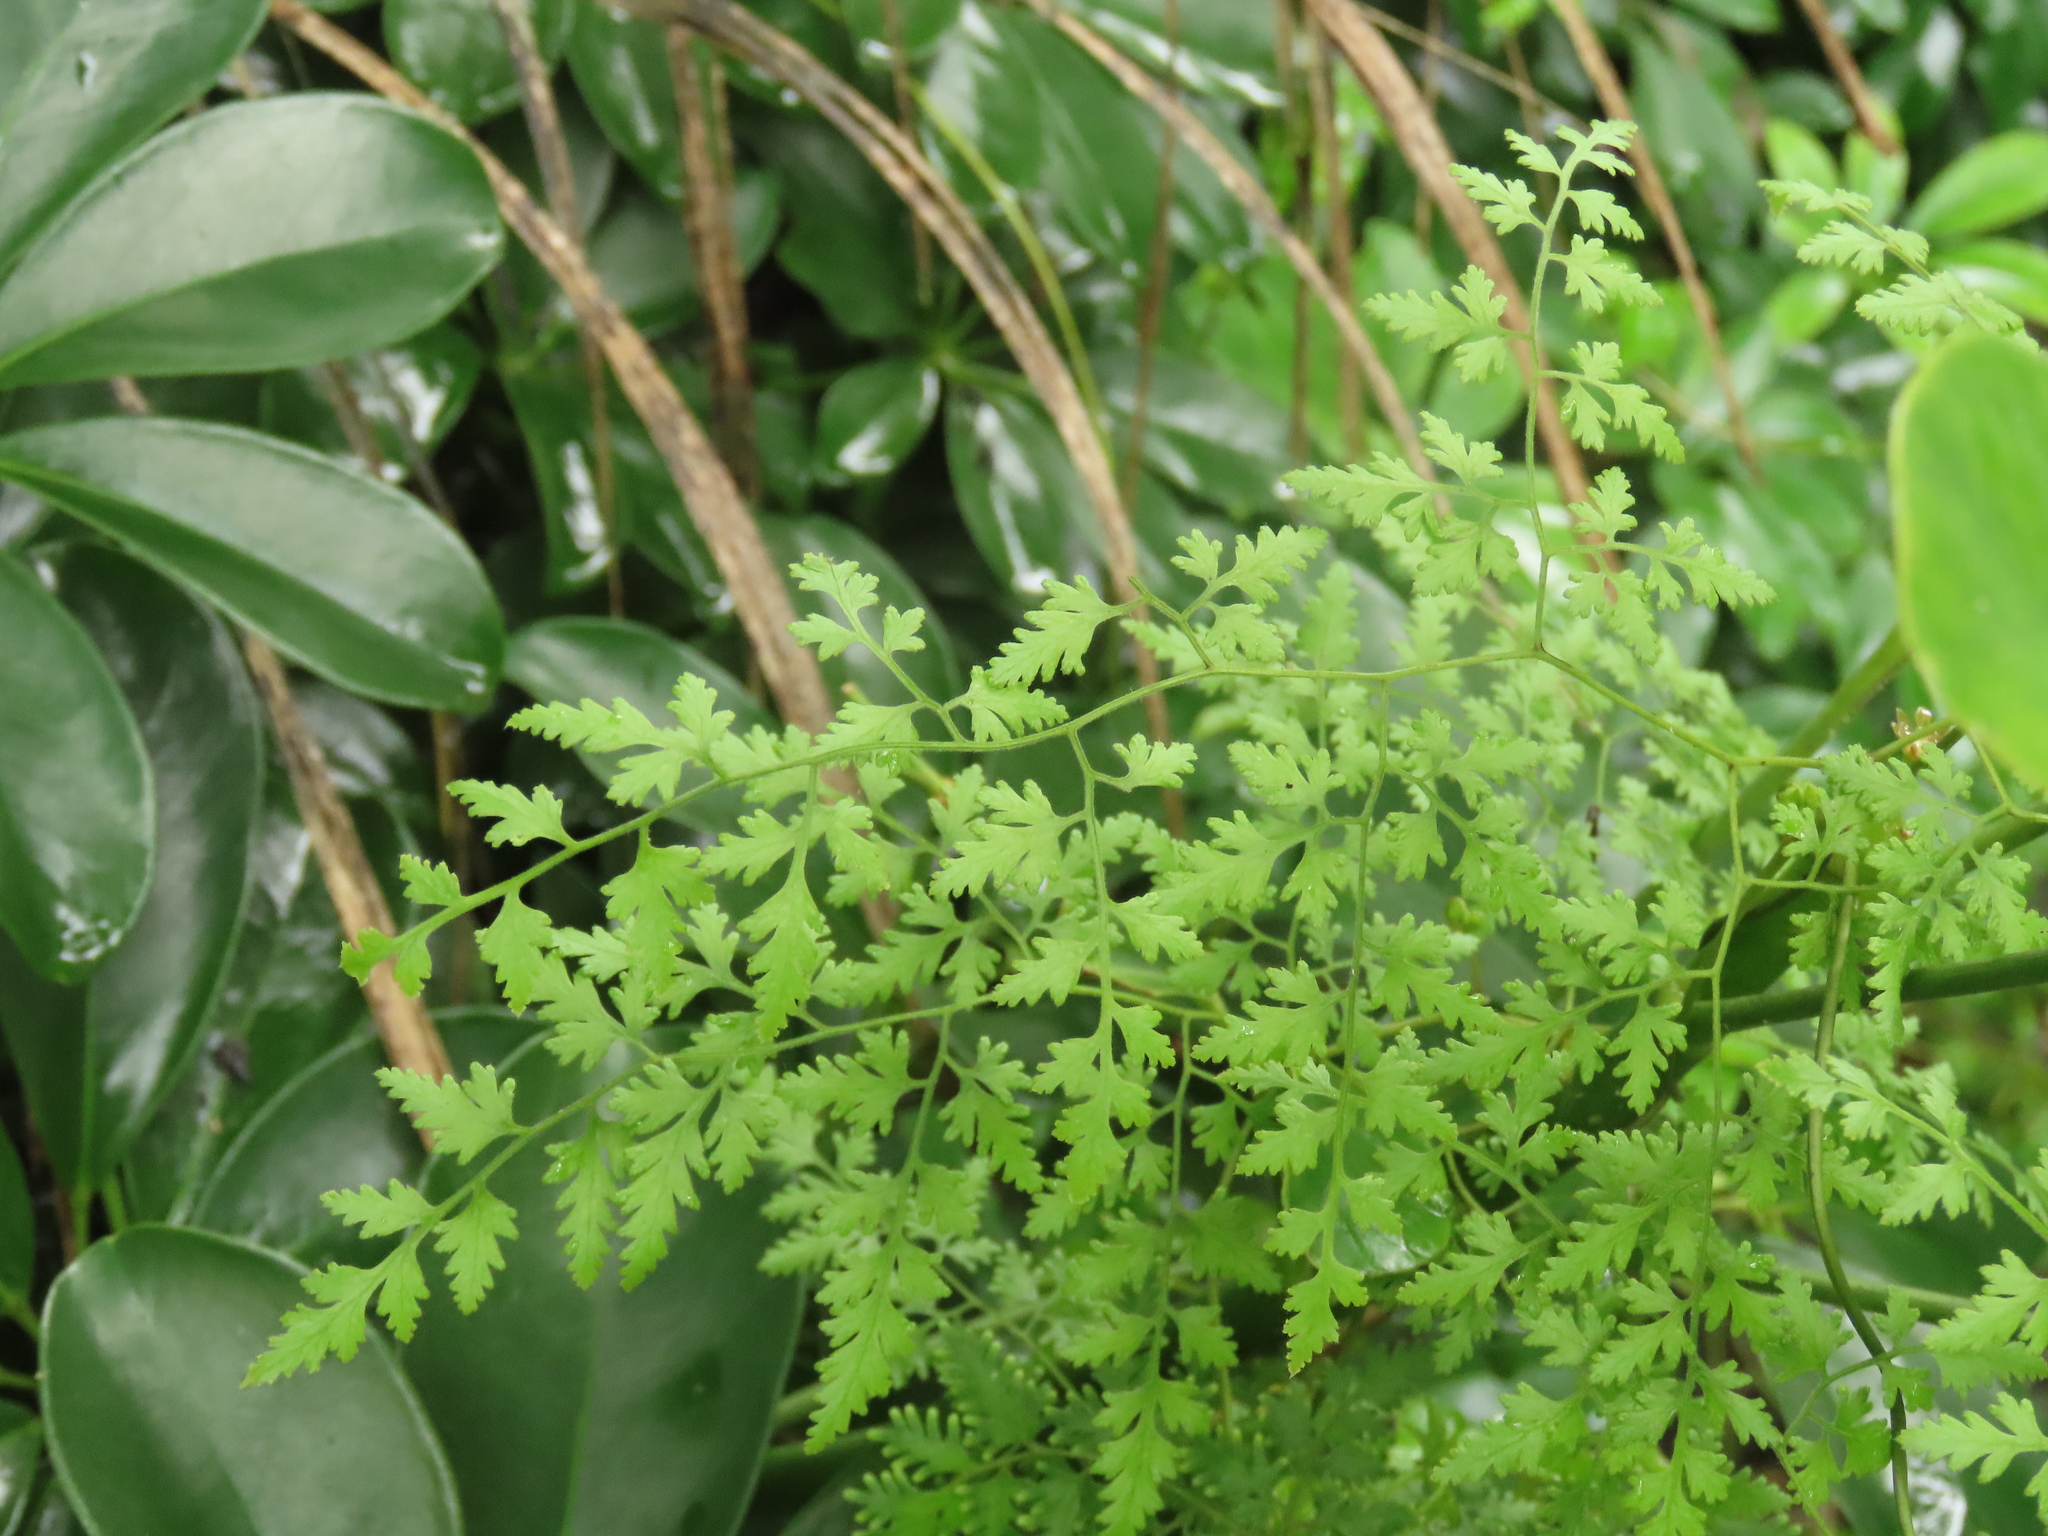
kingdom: Plantae
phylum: Tracheophyta
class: Polypodiopsida
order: Schizaeales
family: Lygodiaceae
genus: Lygodium
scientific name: Lygodium japonicum
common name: Japanese climbing fern
